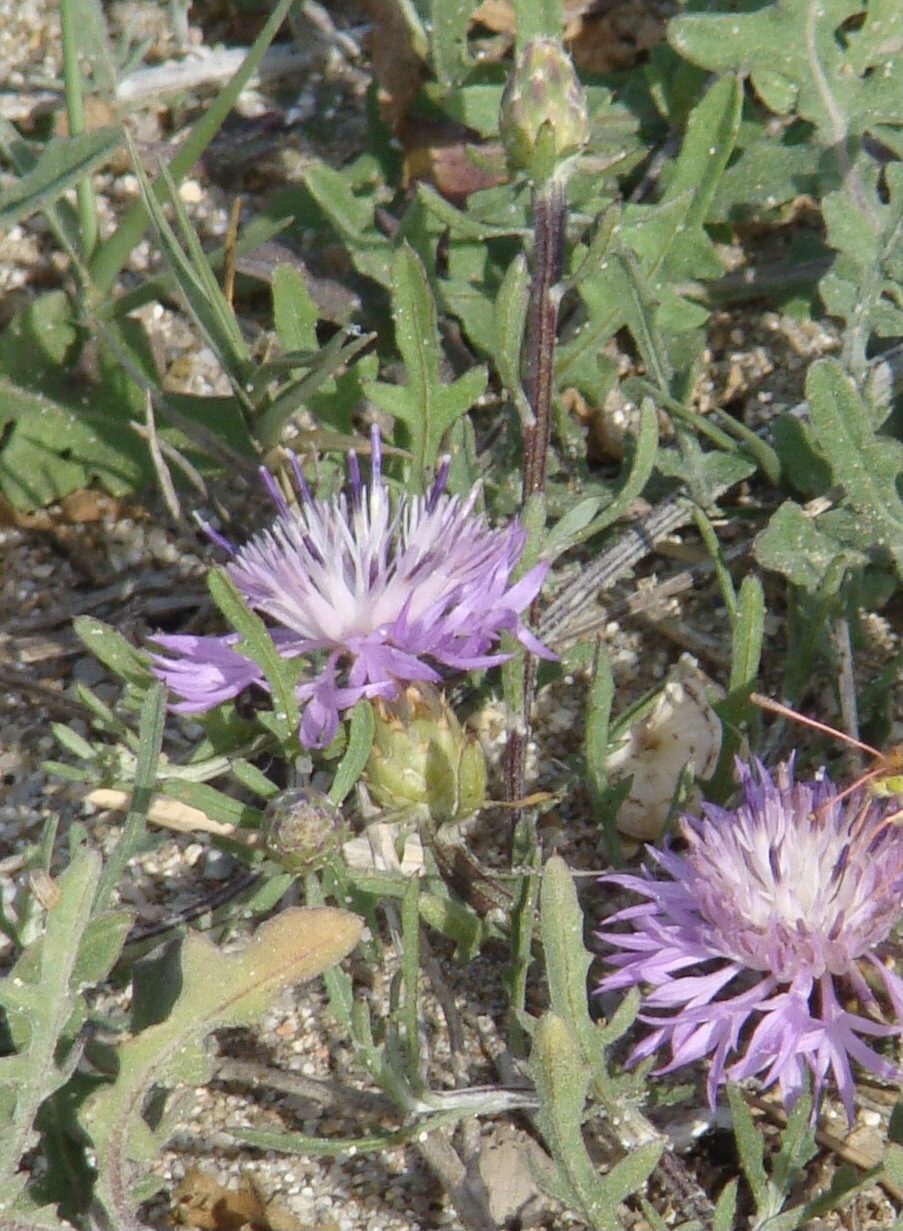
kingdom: Plantae
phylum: Tracheophyta
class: Magnoliopsida
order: Asterales
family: Asteraceae
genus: Centaurea
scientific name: Centaurea aspera
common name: Rough star-thistle
